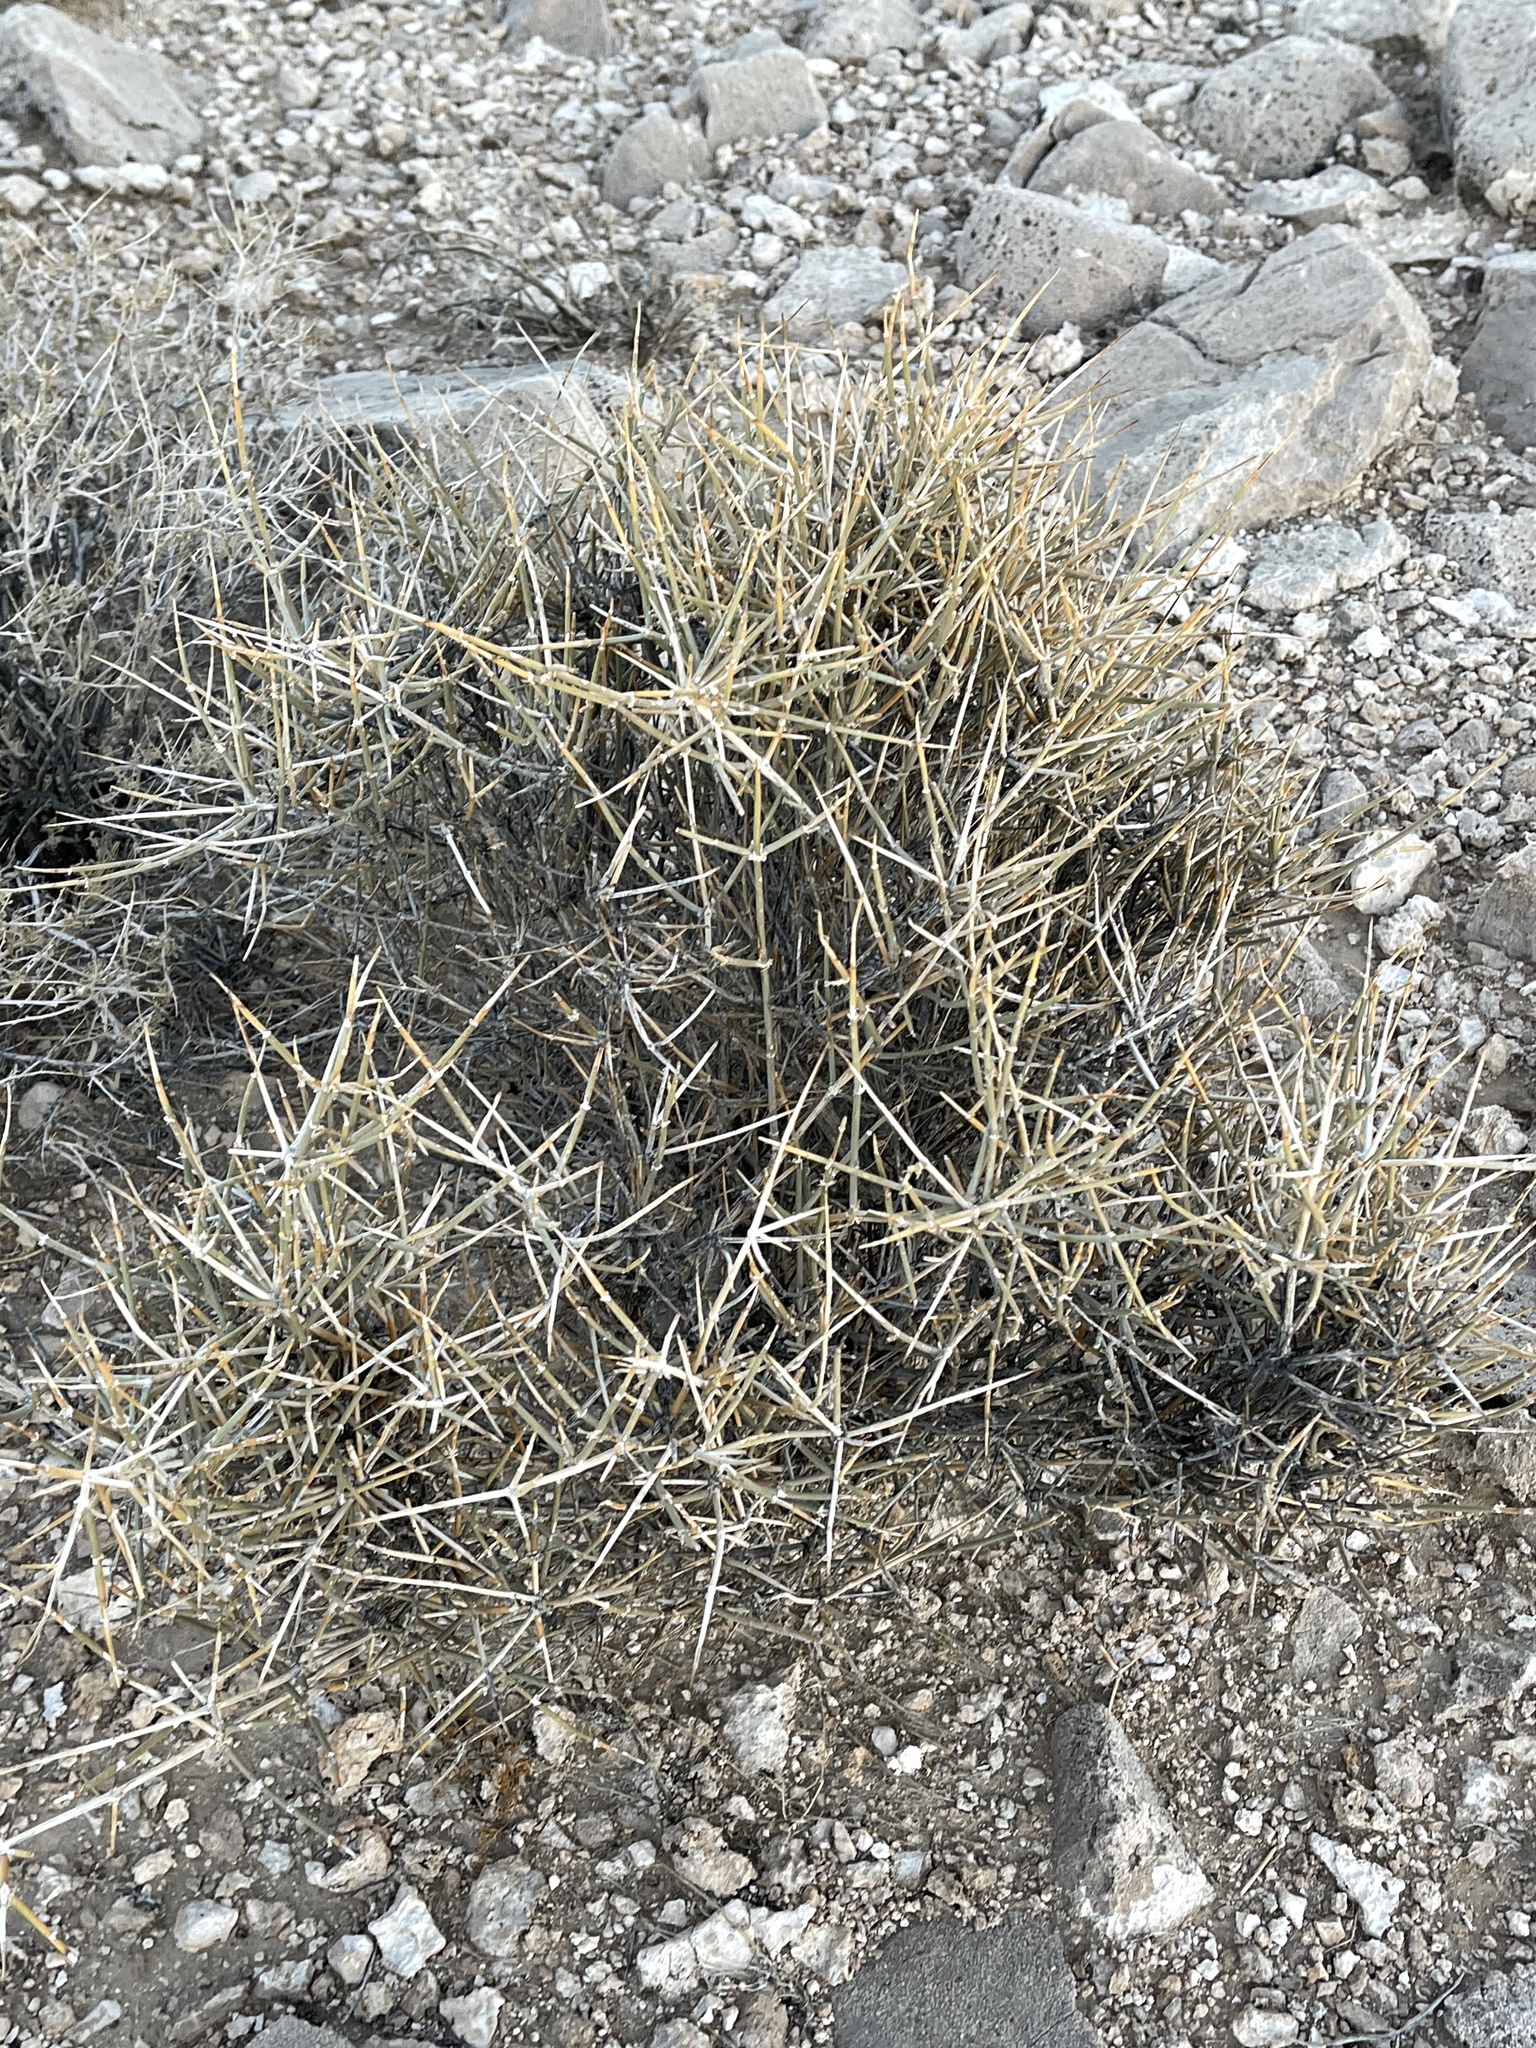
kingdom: Plantae
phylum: Tracheophyta
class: Gnetopsida
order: Ephedrales
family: Ephedraceae
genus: Ephedra
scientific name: Ephedra nevadensis
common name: Gray ephedra
